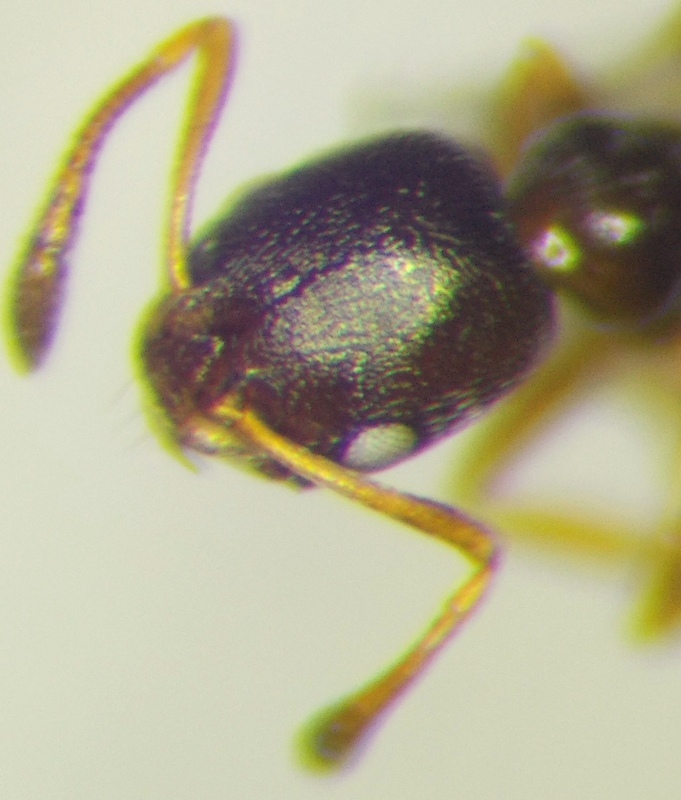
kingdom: Animalia
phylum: Arthropoda
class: Insecta
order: Hymenoptera
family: Formicidae
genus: Cardiocondyla
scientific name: Cardiocondyla stambuloffii
